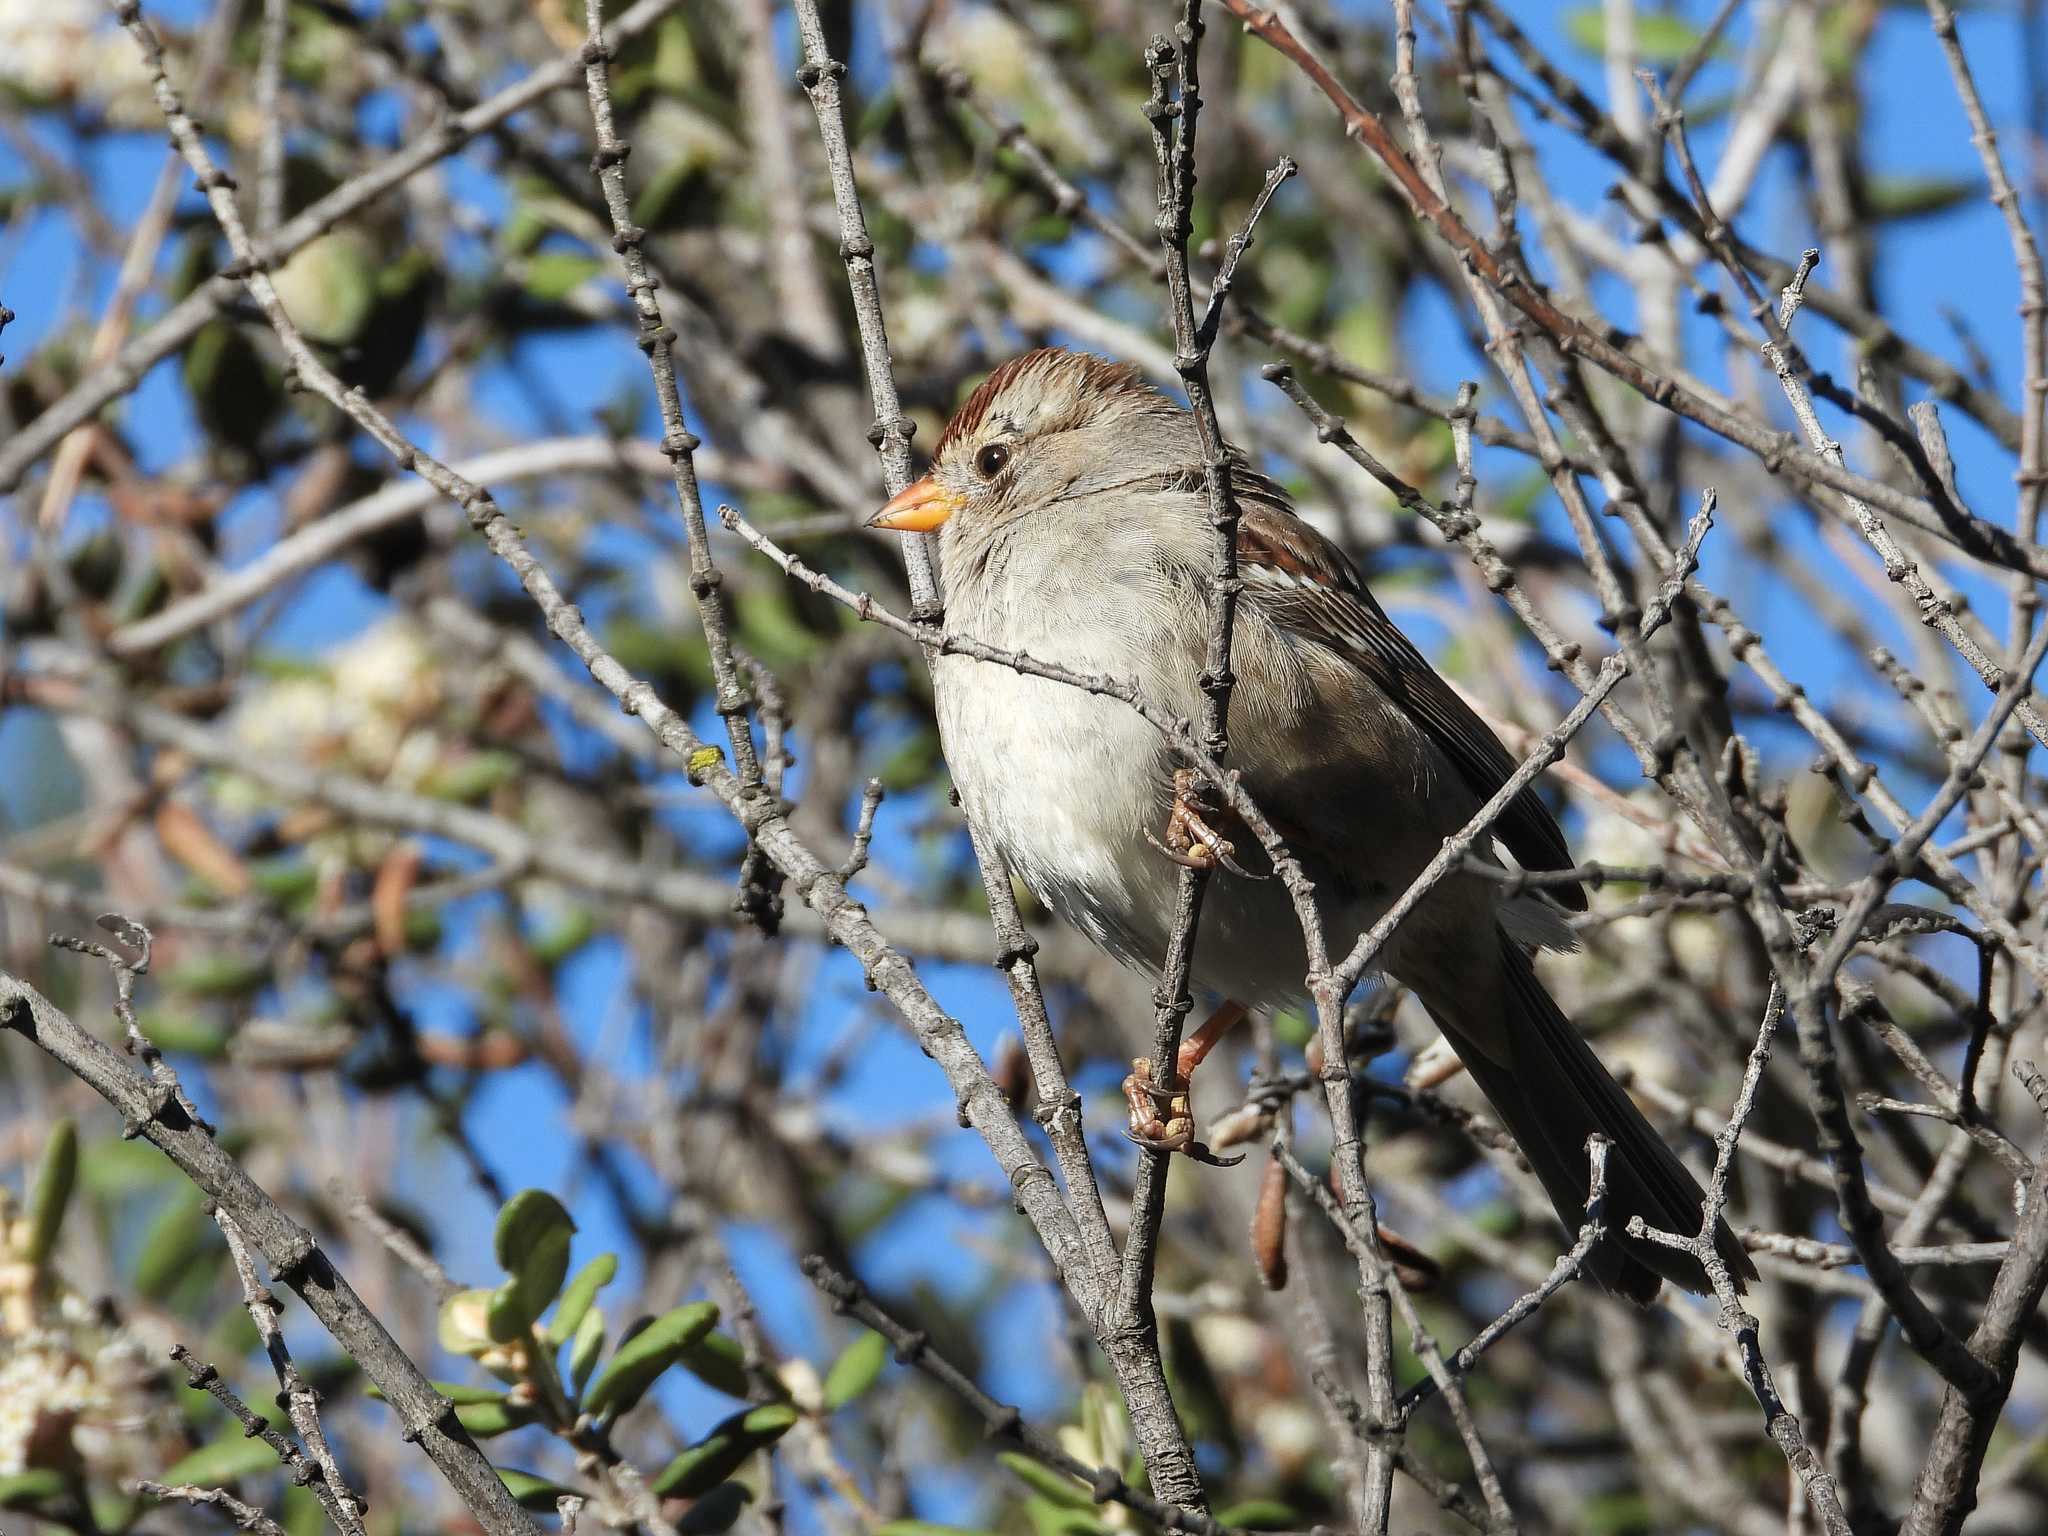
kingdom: Animalia
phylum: Chordata
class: Aves
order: Passeriformes
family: Passerellidae
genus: Zonotrichia
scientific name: Zonotrichia leucophrys
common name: White-crowned sparrow
